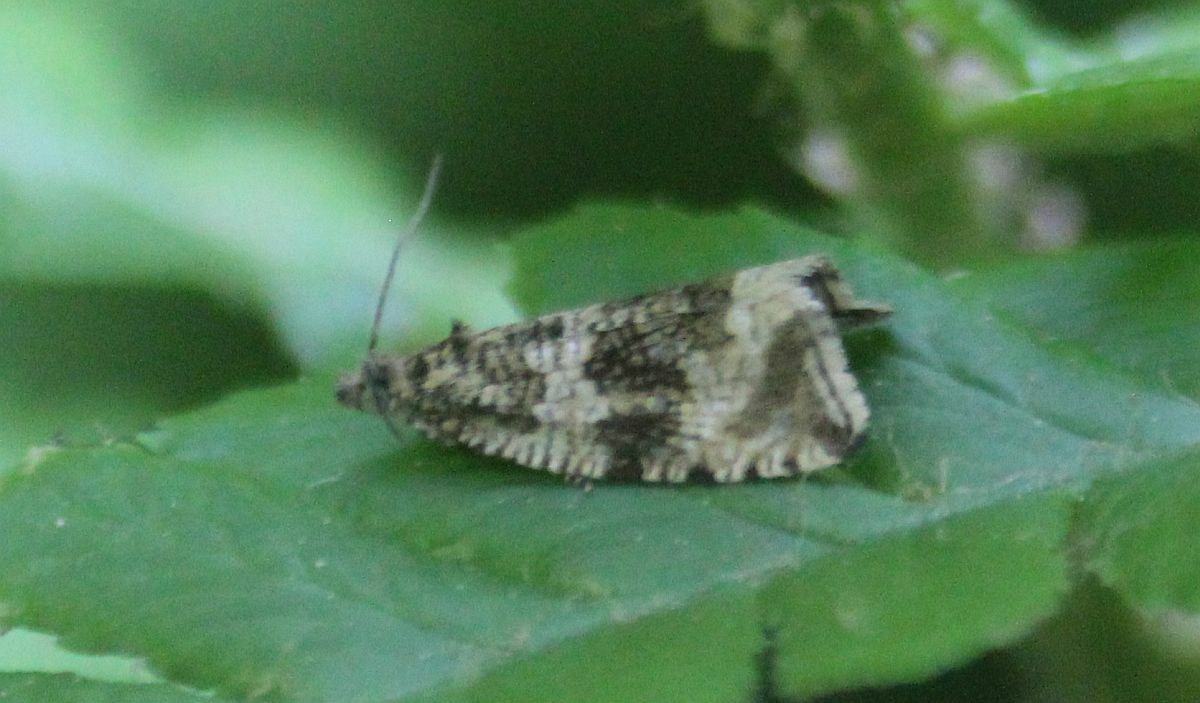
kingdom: Animalia
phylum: Arthropoda
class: Insecta
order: Lepidoptera
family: Tortricidae
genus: Syricoris
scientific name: Syricoris lacunana
